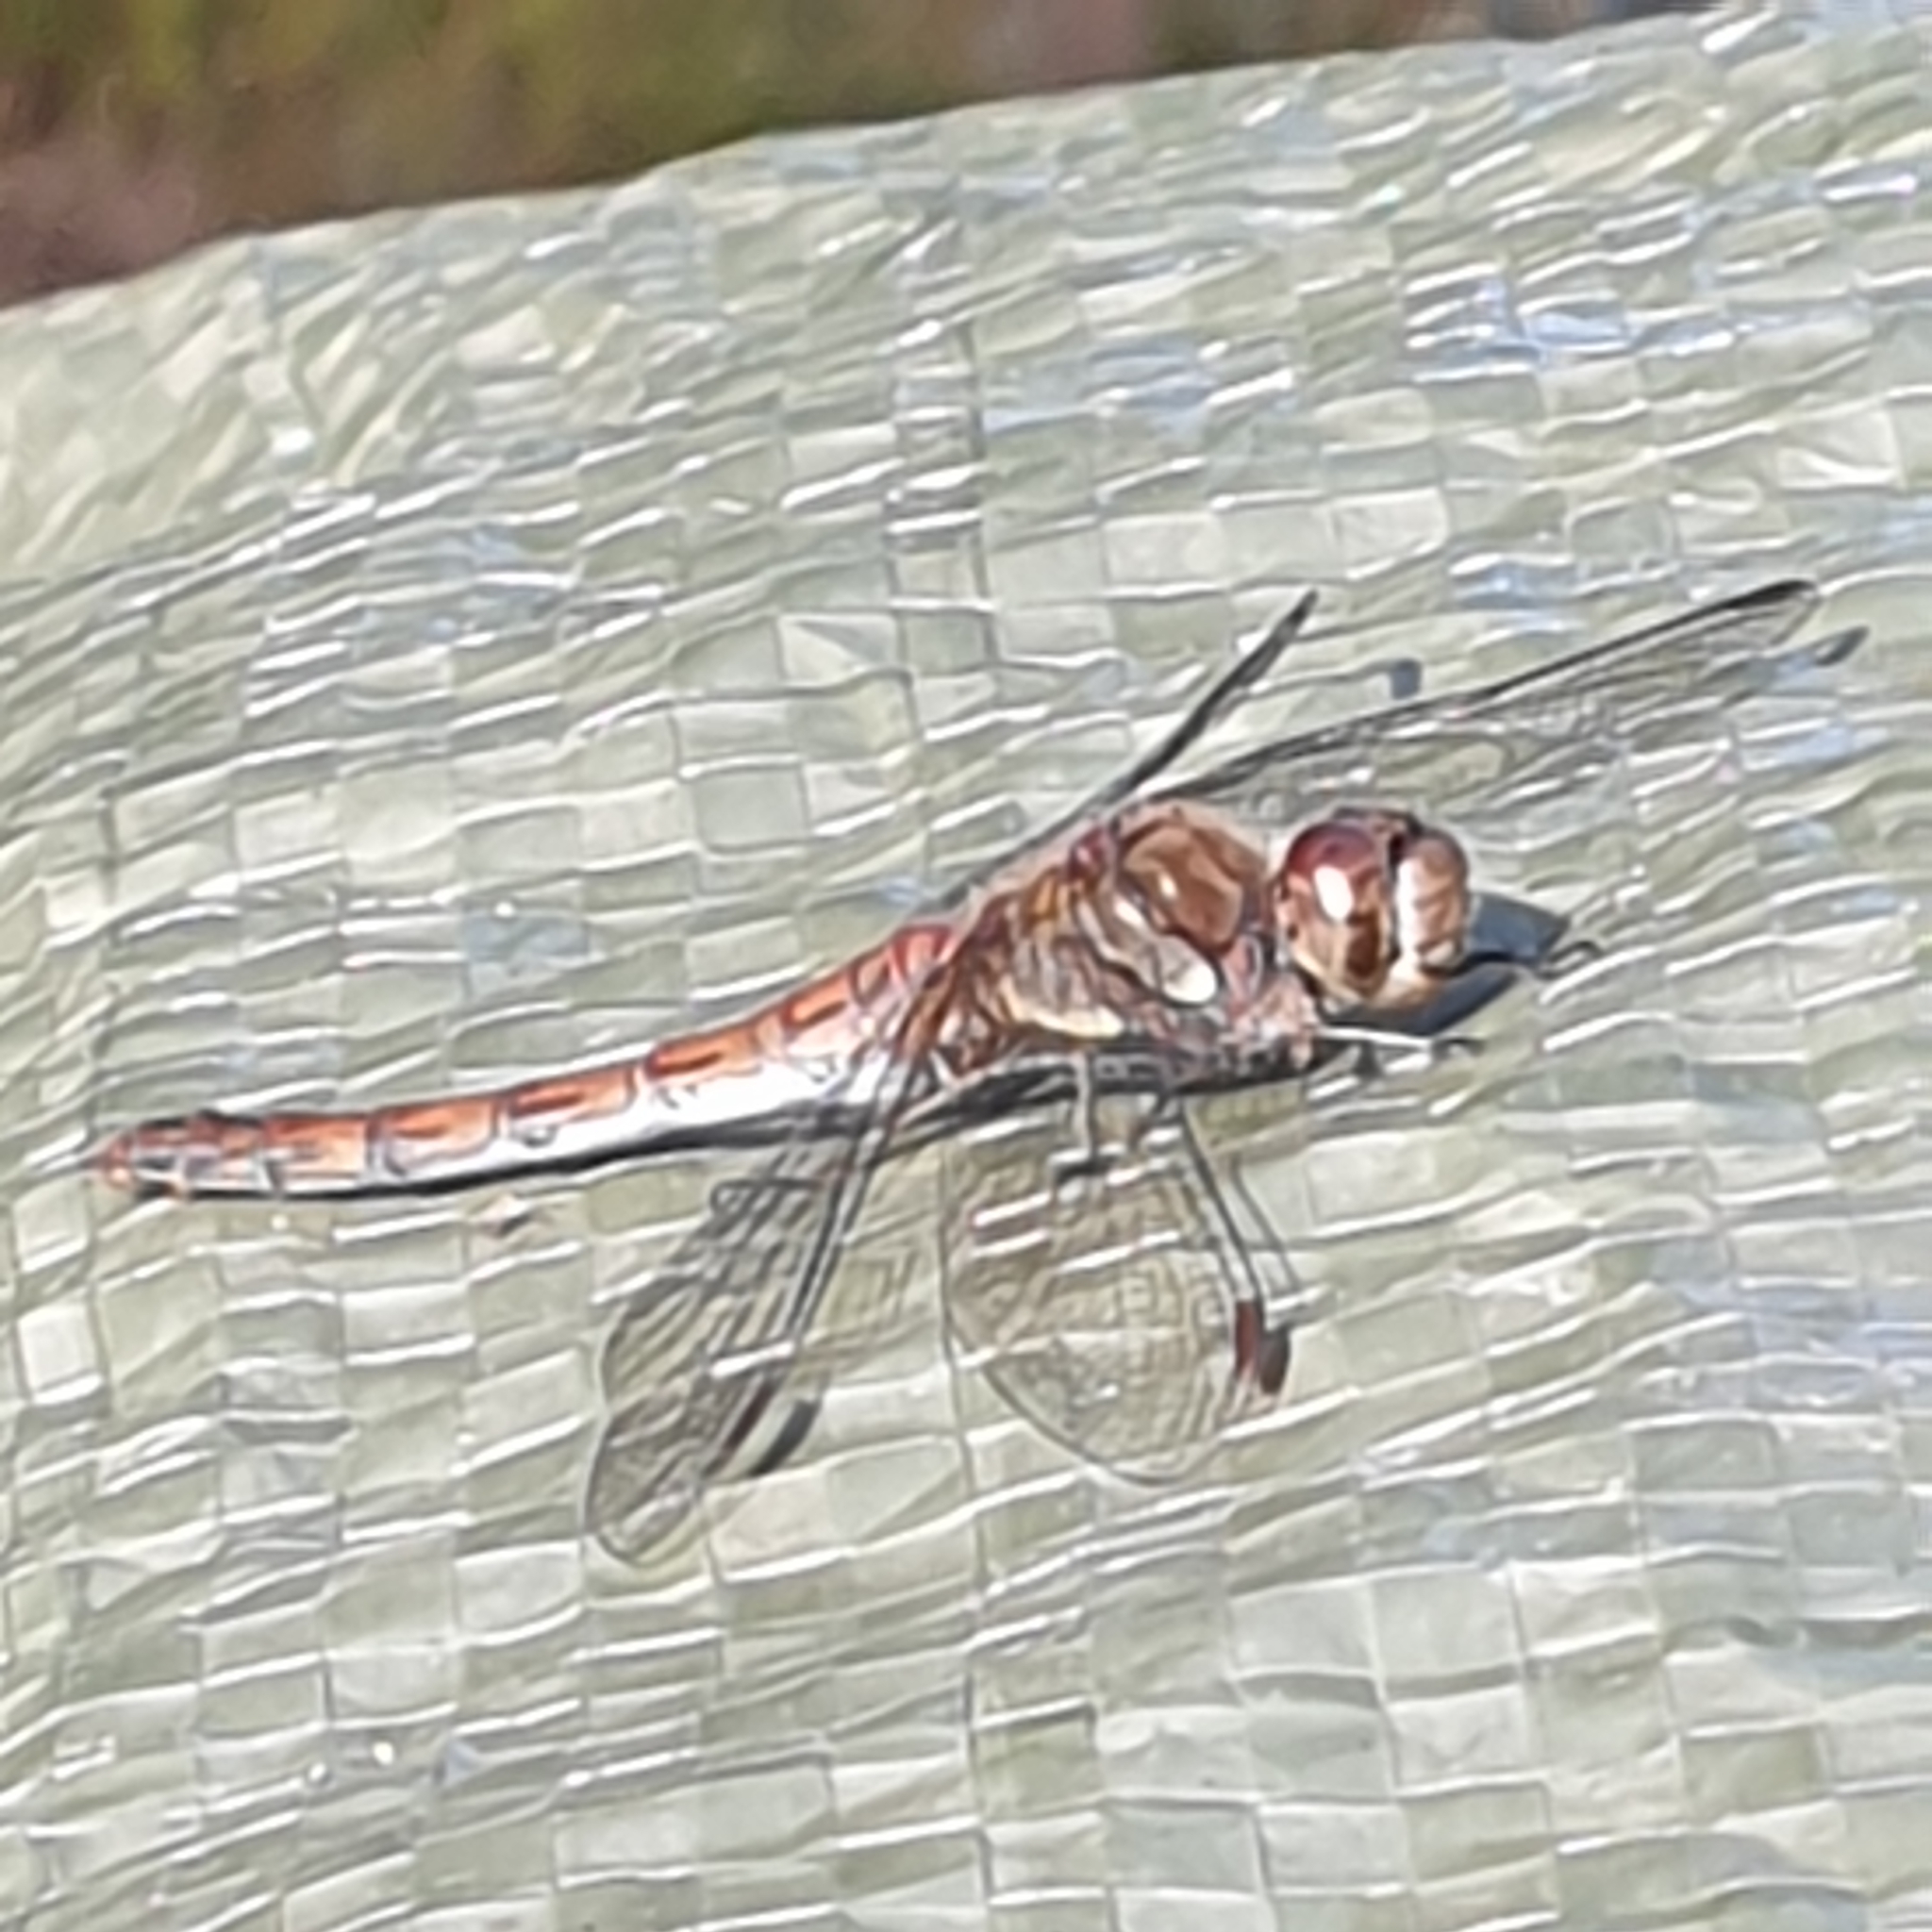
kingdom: Animalia
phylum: Arthropoda
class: Insecta
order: Odonata
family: Libellulidae
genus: Sympetrum
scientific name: Sympetrum striolatum
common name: Common darter
